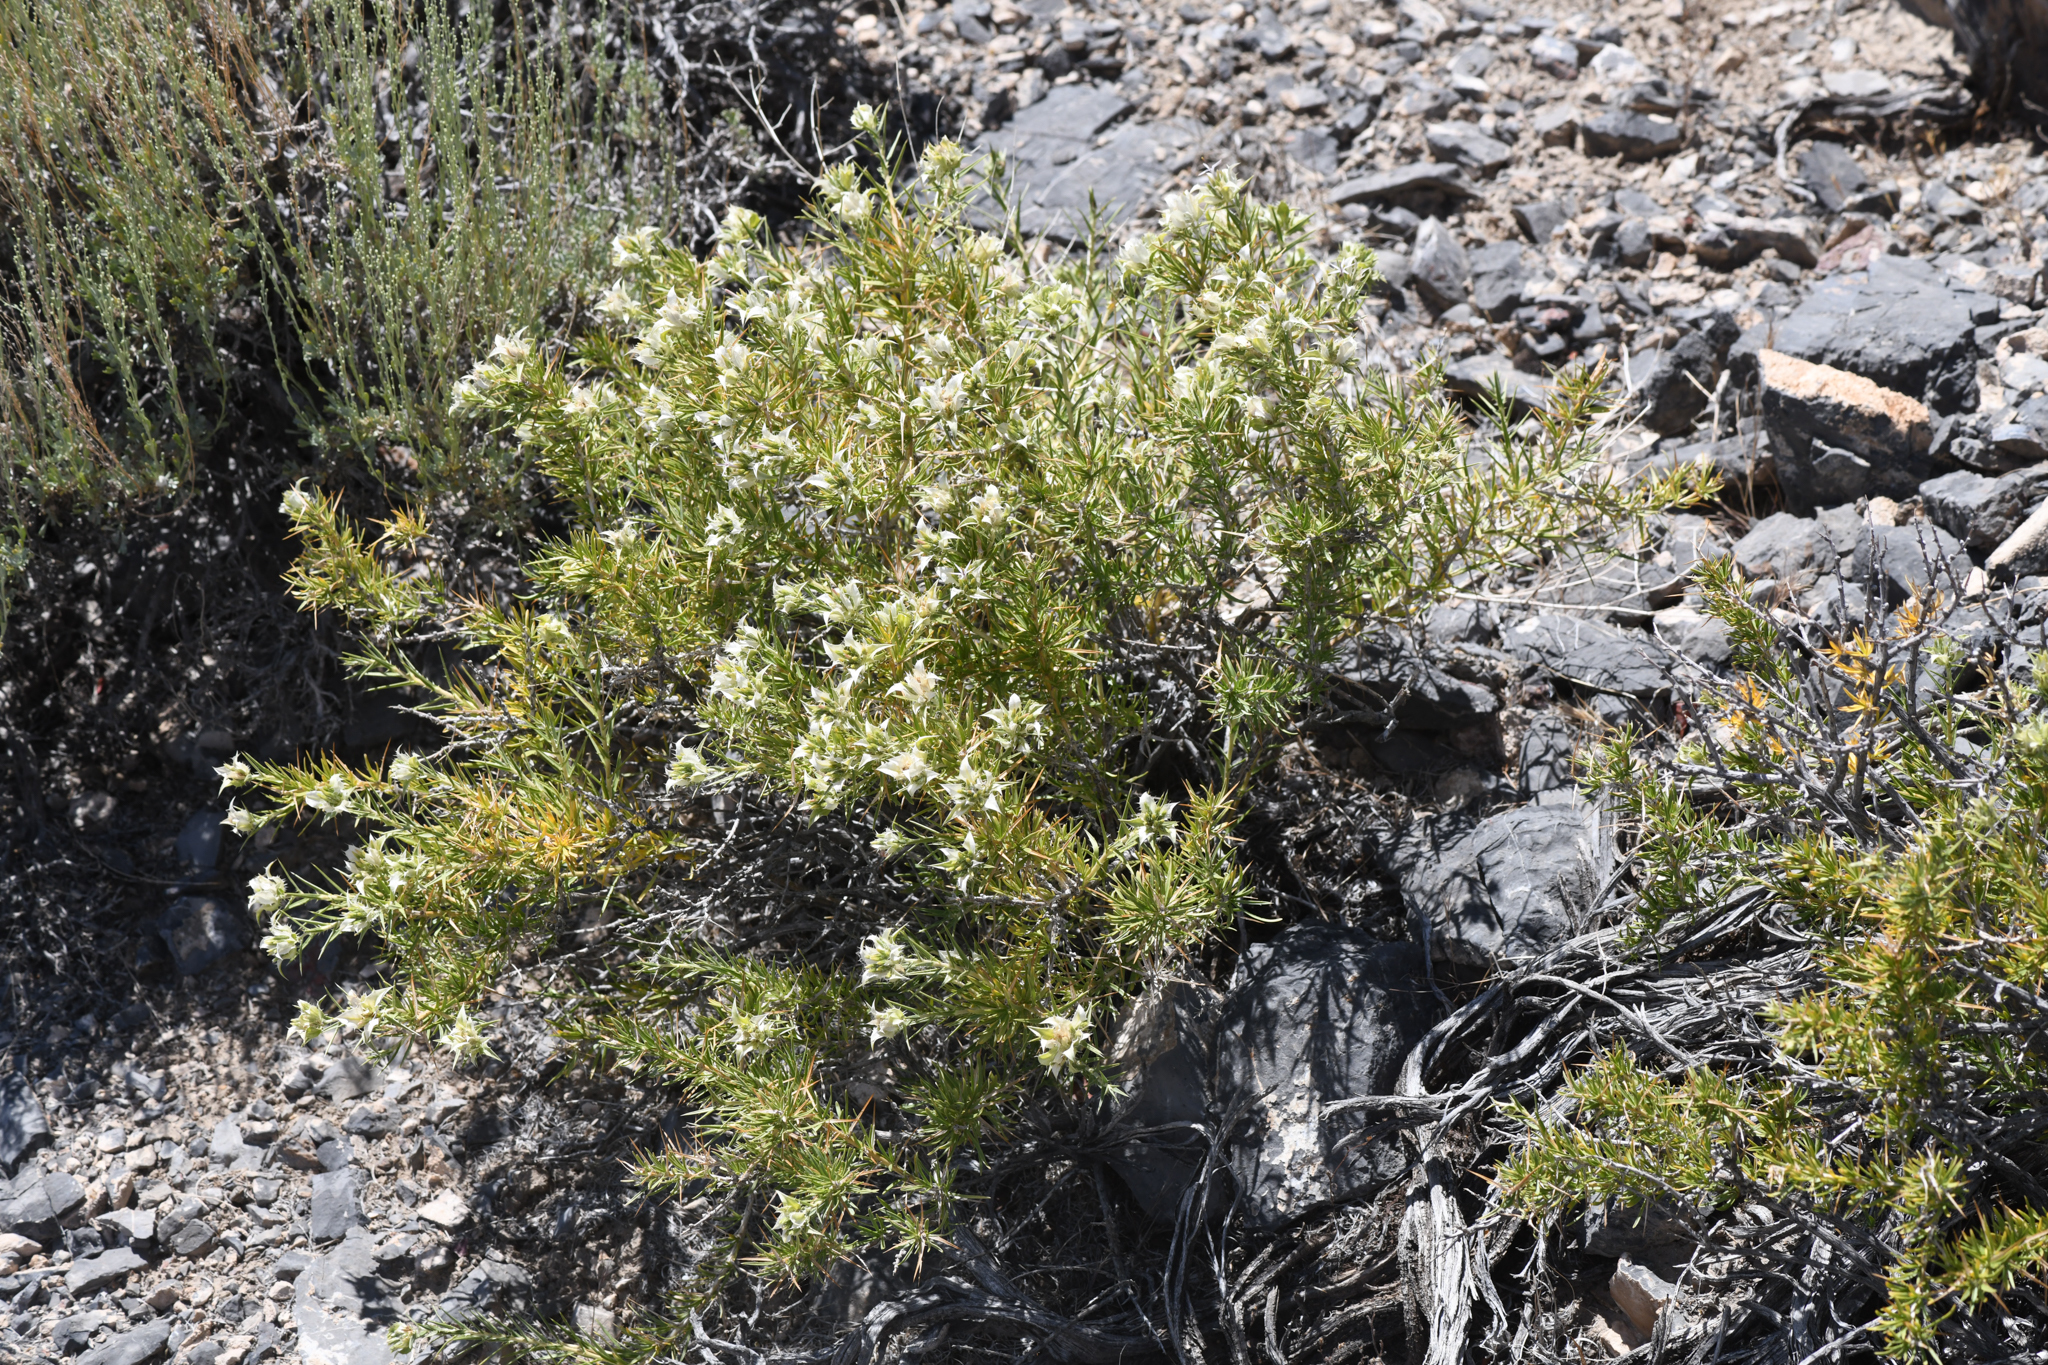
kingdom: Plantae
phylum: Tracheophyta
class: Magnoliopsida
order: Asterales
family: Asteraceae
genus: Hecastocleis
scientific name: Hecastocleis shockleyi
